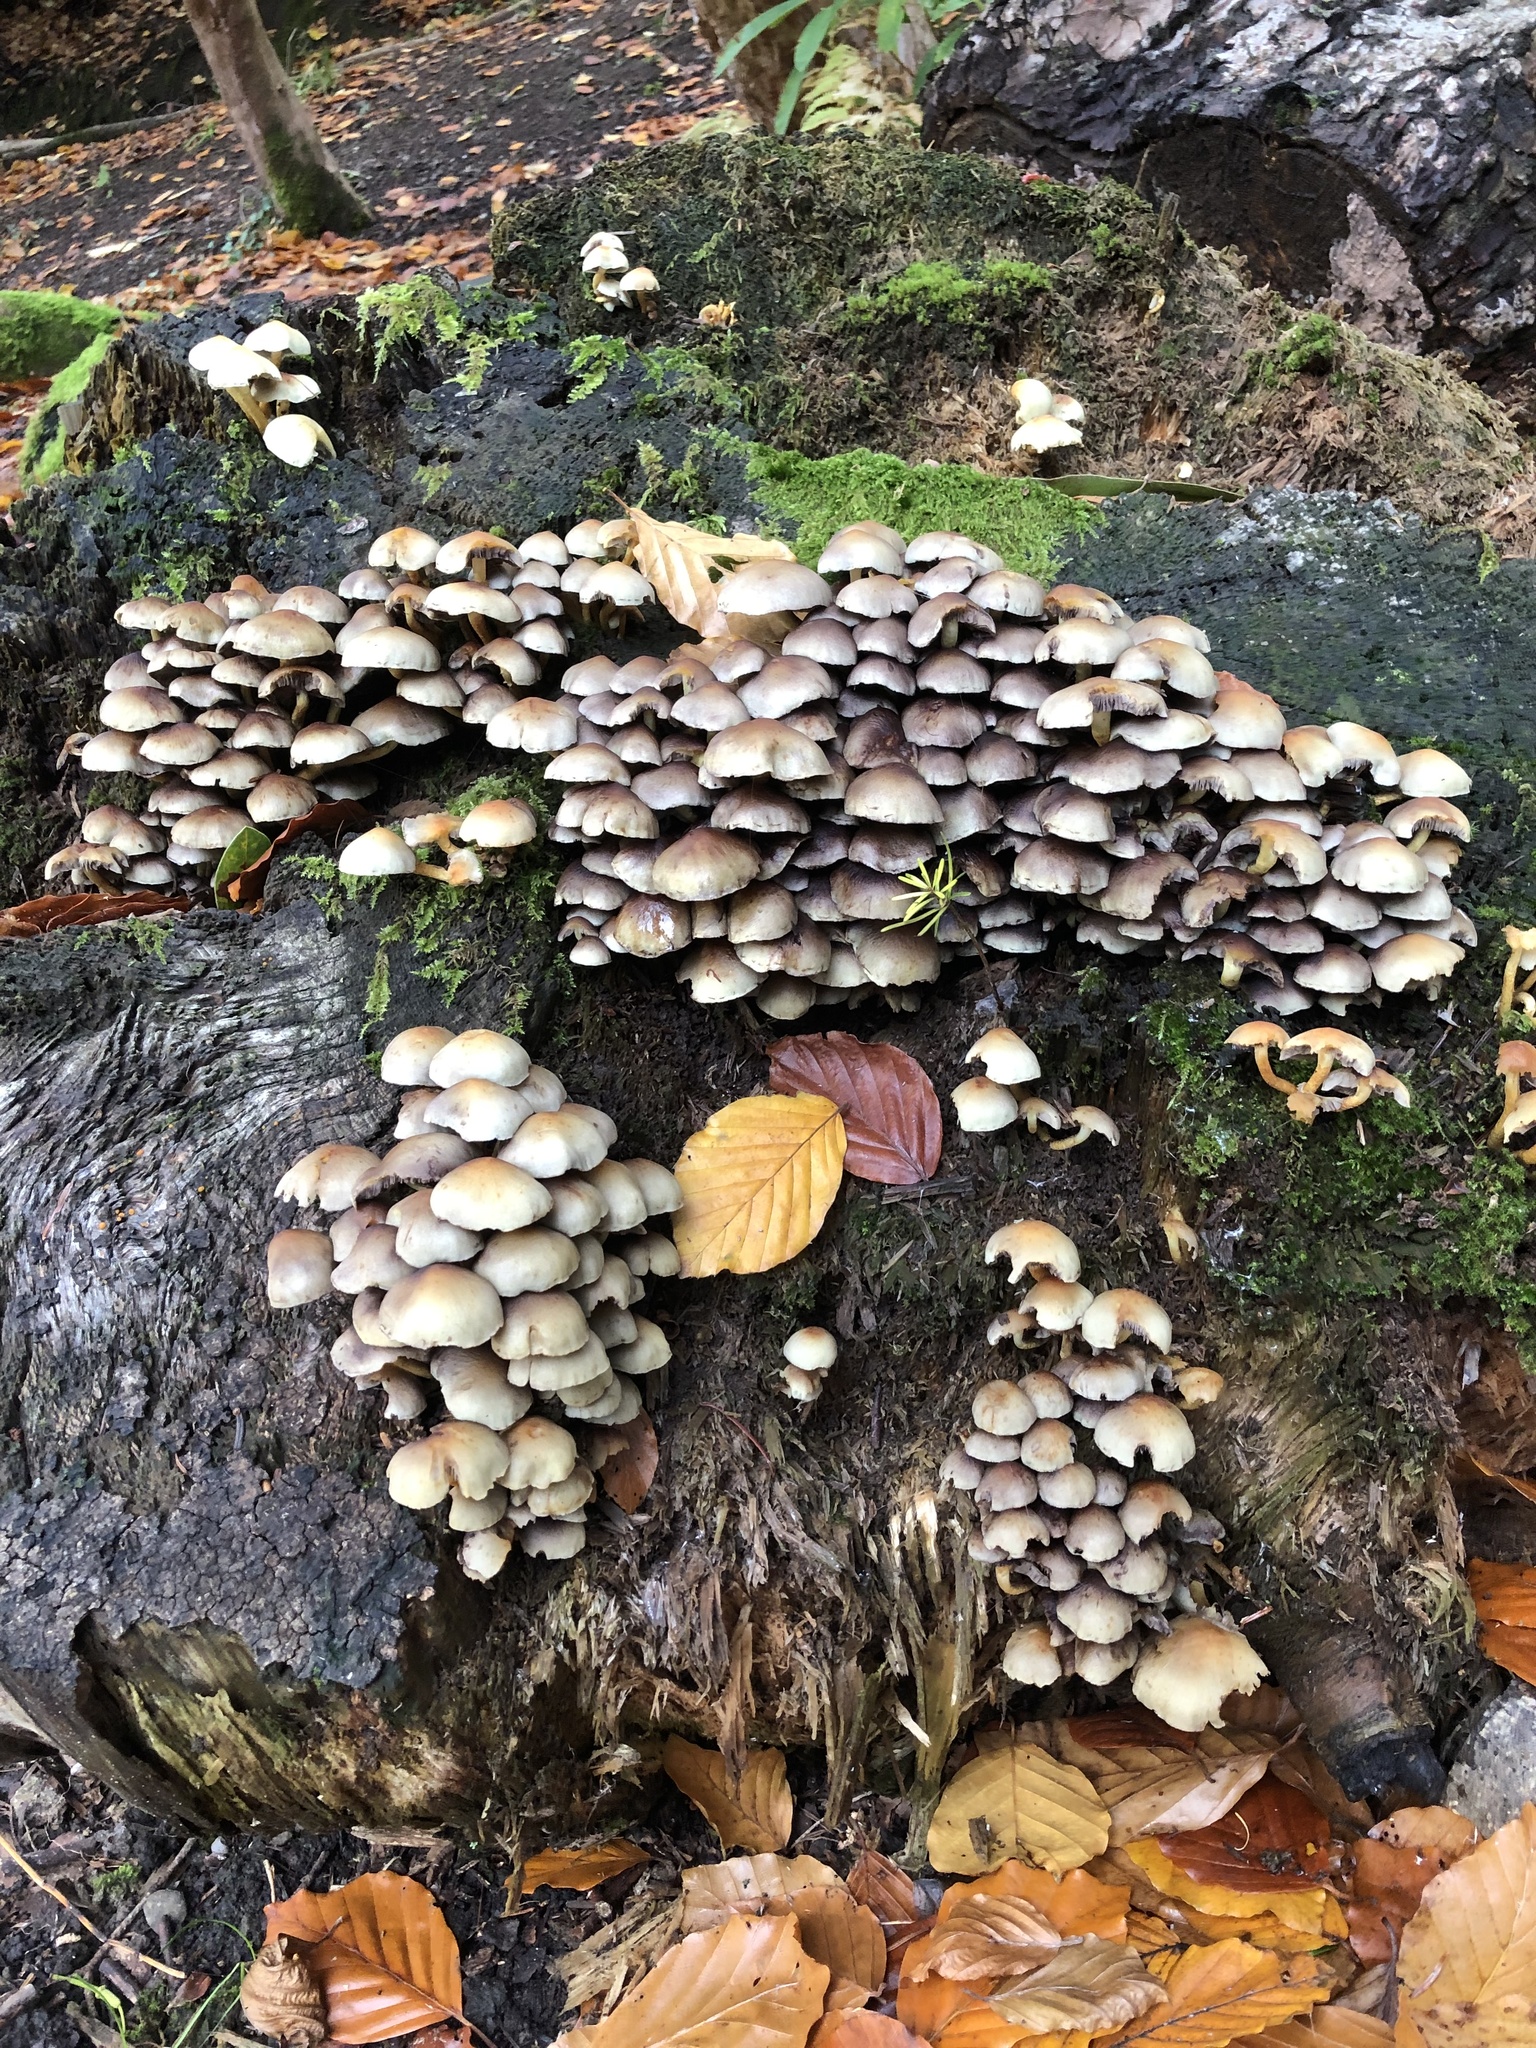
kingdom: Fungi
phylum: Basidiomycota
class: Agaricomycetes
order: Agaricales
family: Strophariaceae
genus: Hypholoma
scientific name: Hypholoma fasciculare
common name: Sulphur tuft
